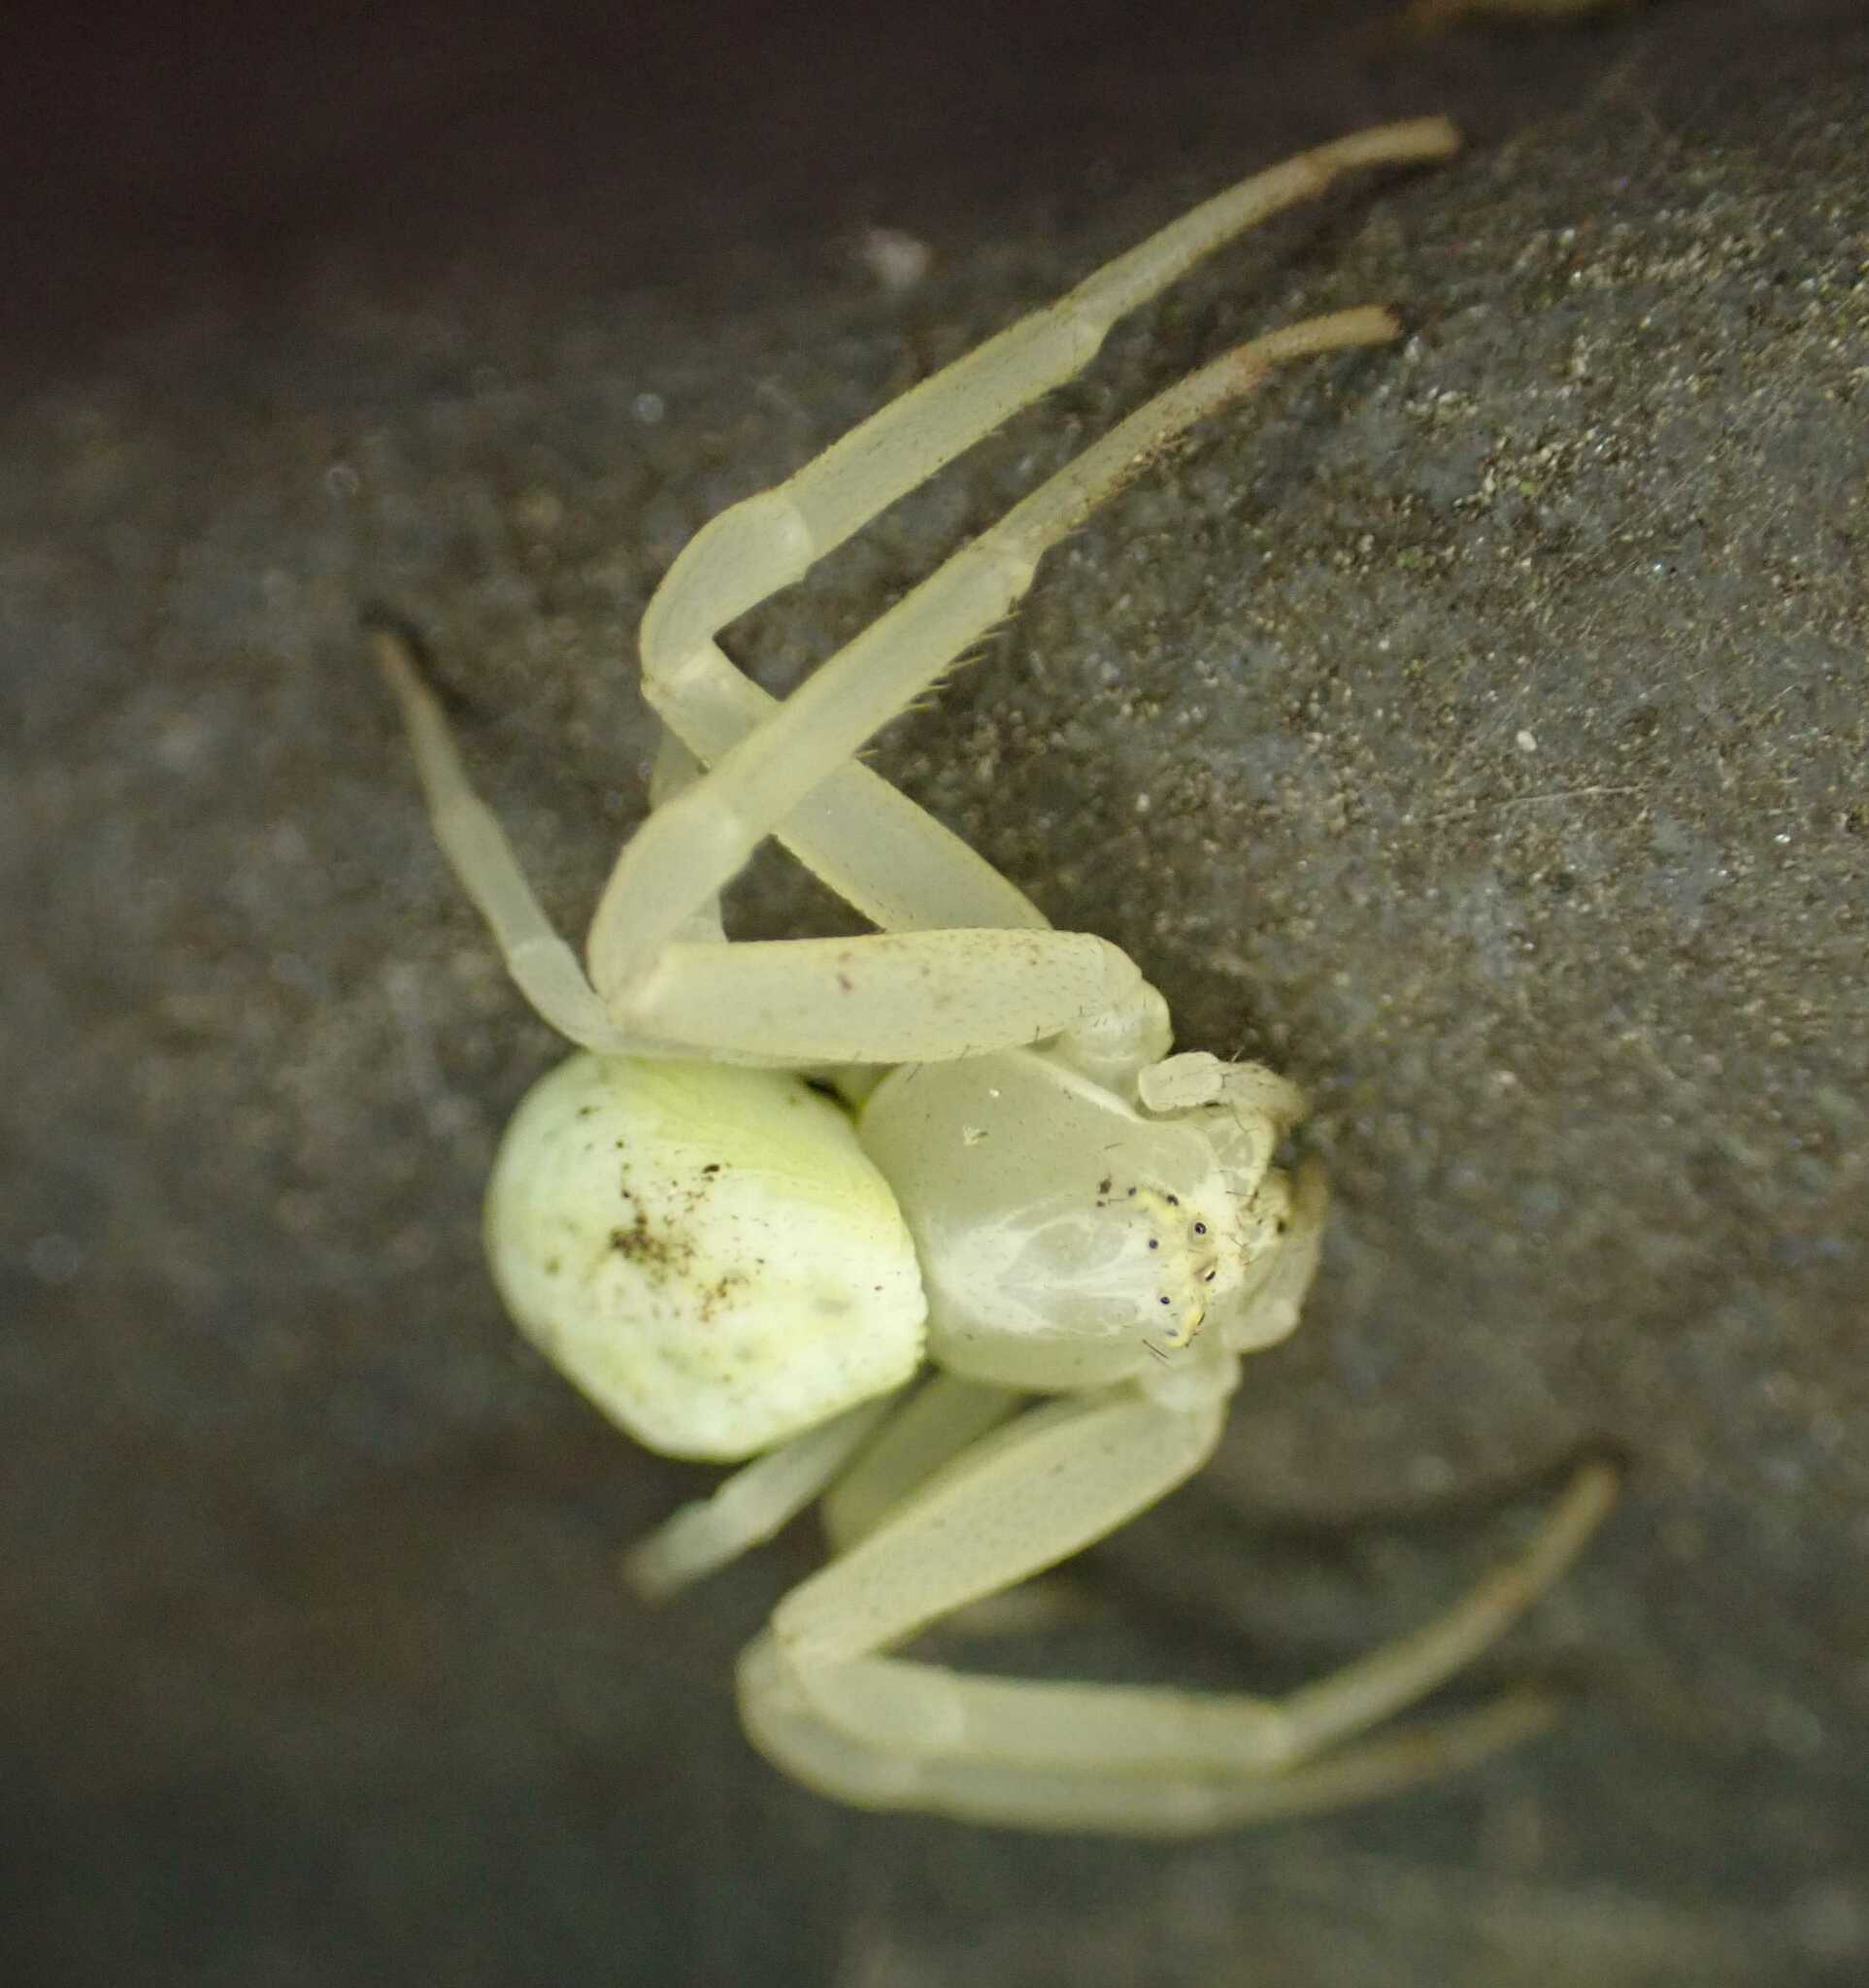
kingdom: Animalia
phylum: Arthropoda
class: Arachnida
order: Araneae
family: Thomisidae
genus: Misumena
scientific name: Misumena vatia
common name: Goldenrod crab spider
